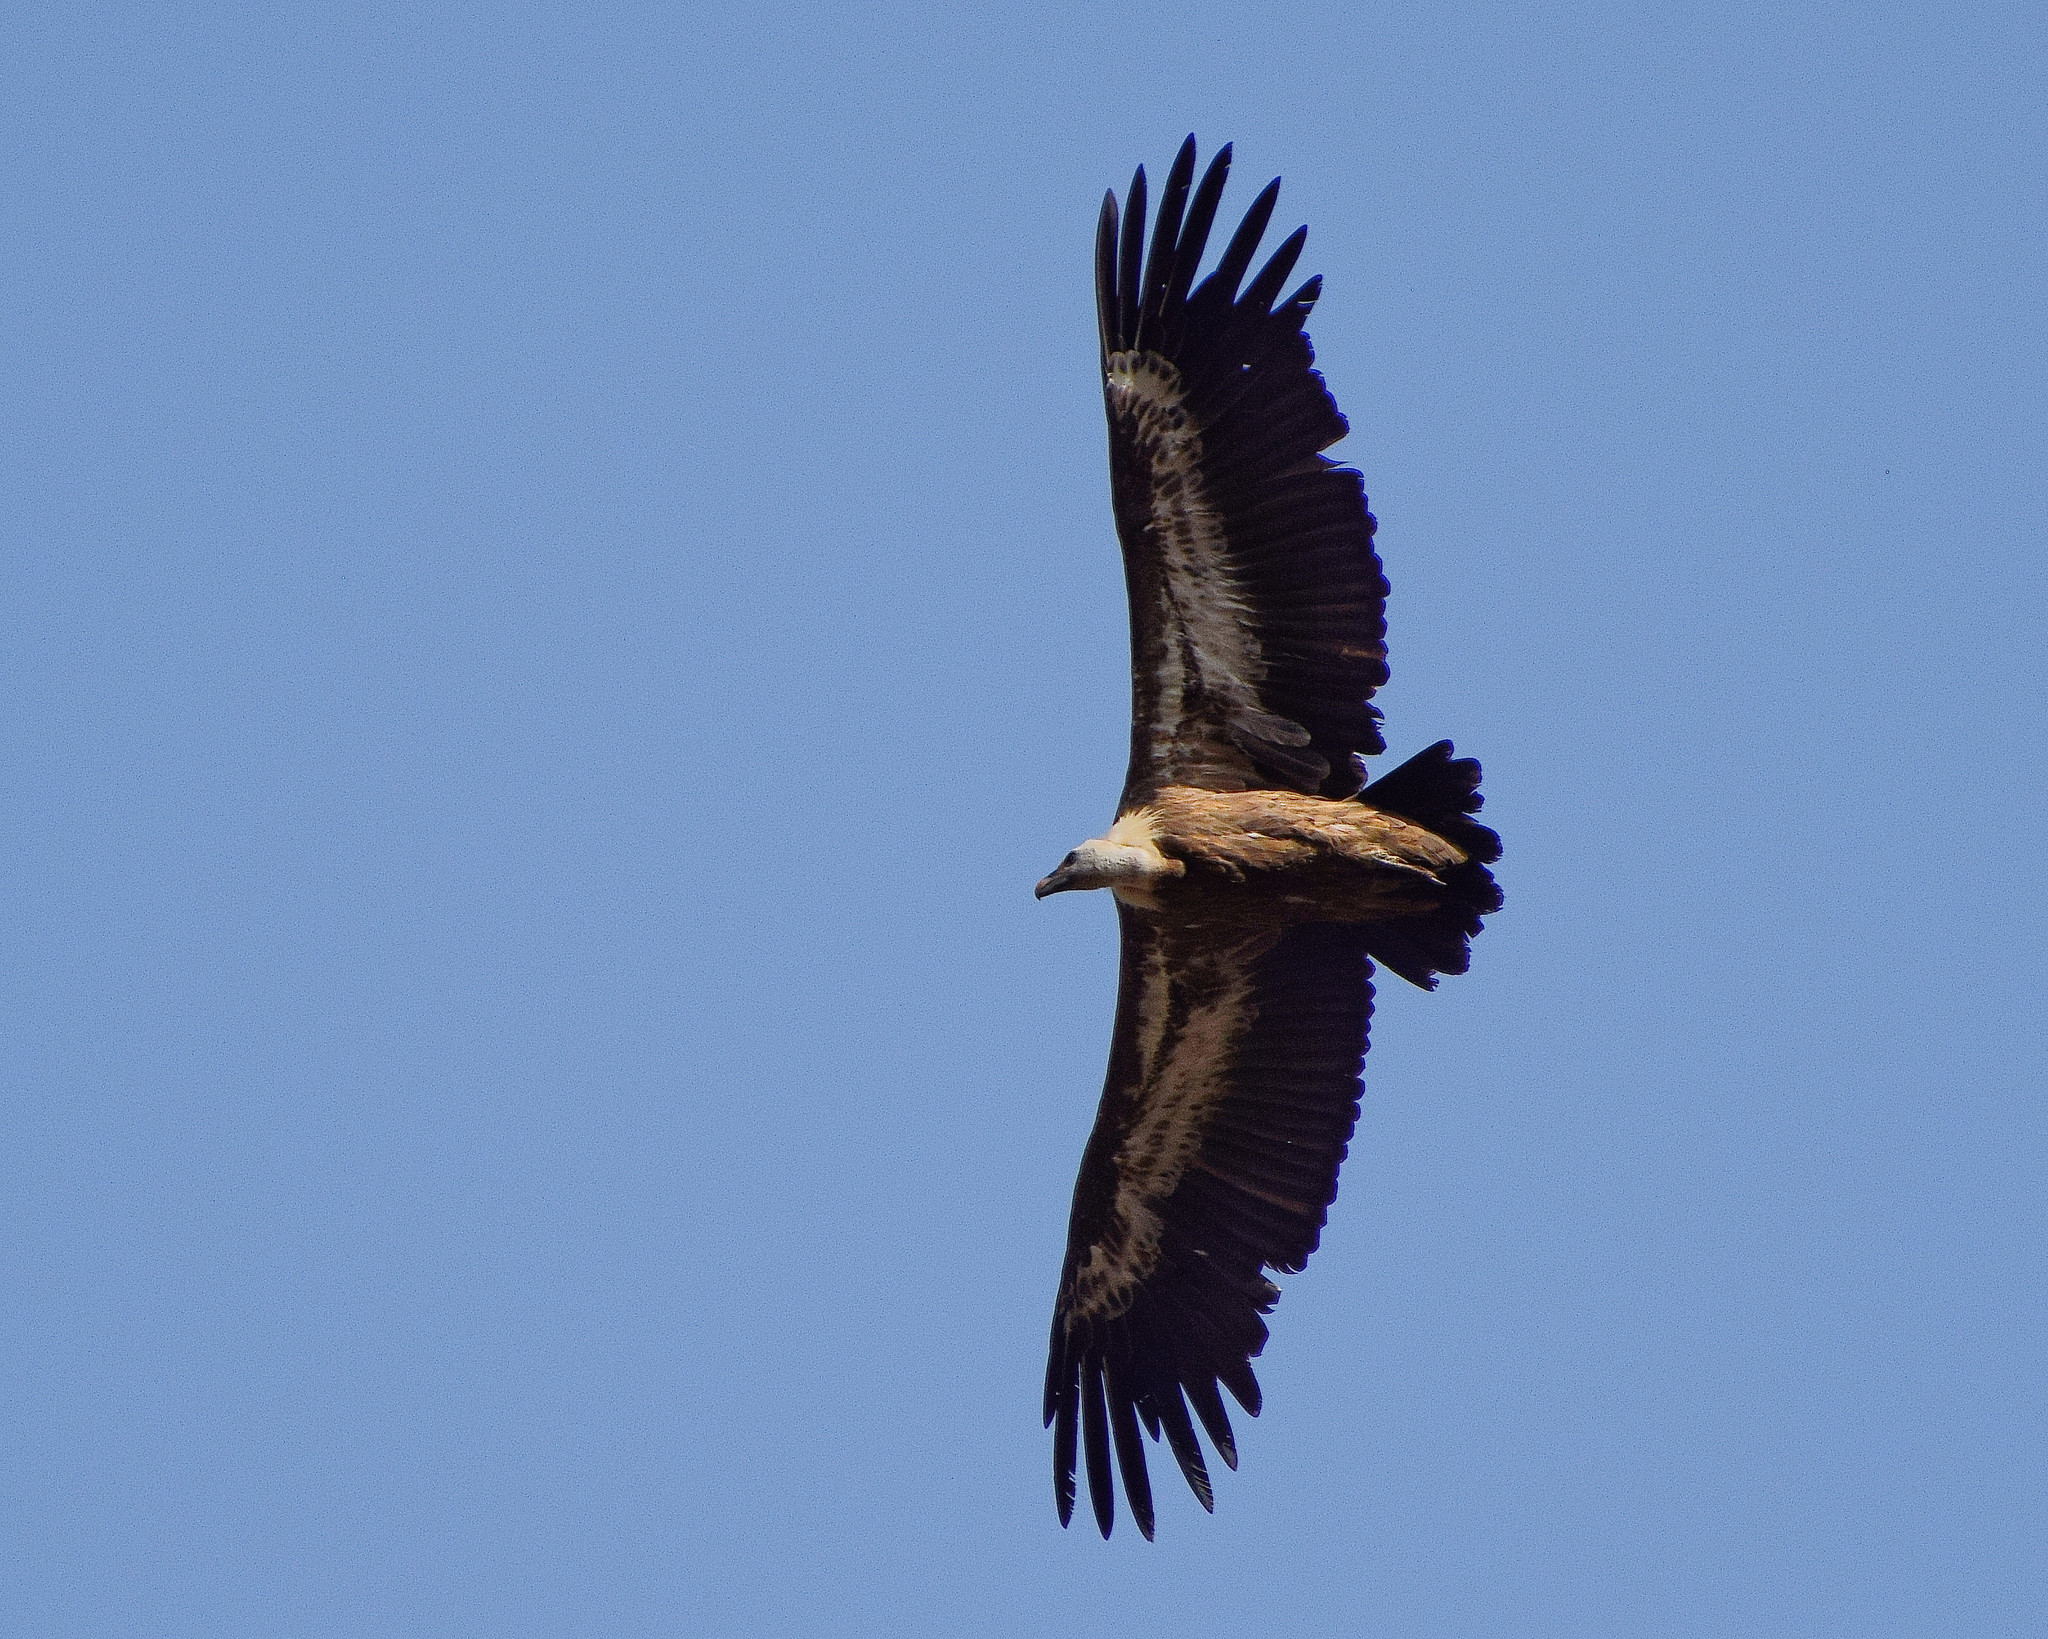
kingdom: Animalia
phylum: Chordata
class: Aves
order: Accipitriformes
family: Accipitridae
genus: Gyps
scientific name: Gyps fulvus
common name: Griffon vulture
